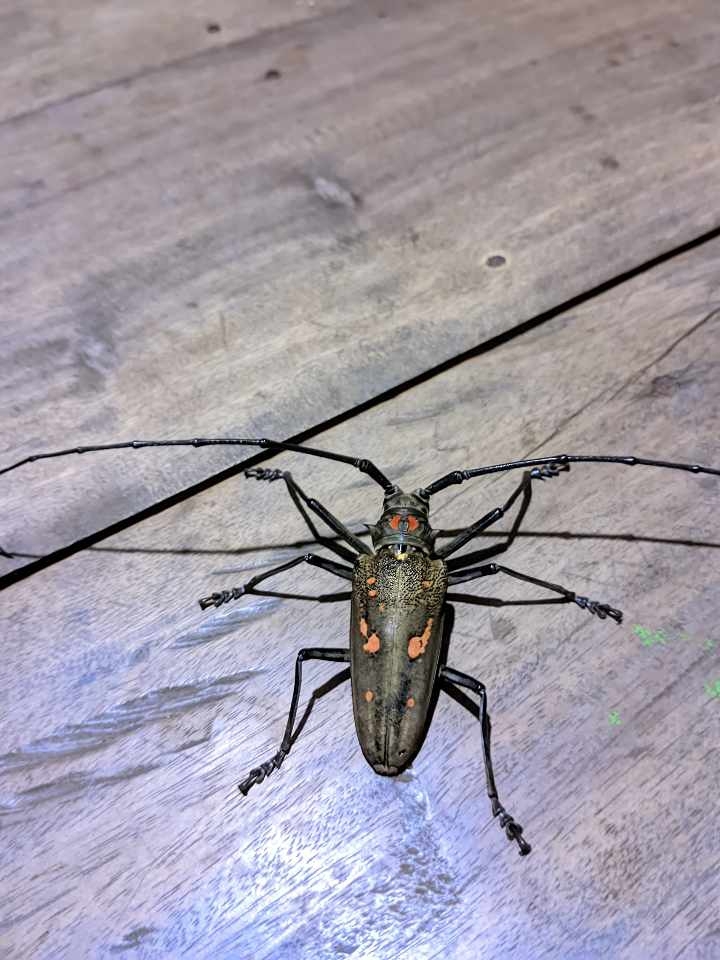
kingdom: Animalia
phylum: Arthropoda
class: Insecta
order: Coleoptera
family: Cerambycidae
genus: Batocera
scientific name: Batocera celebiana
